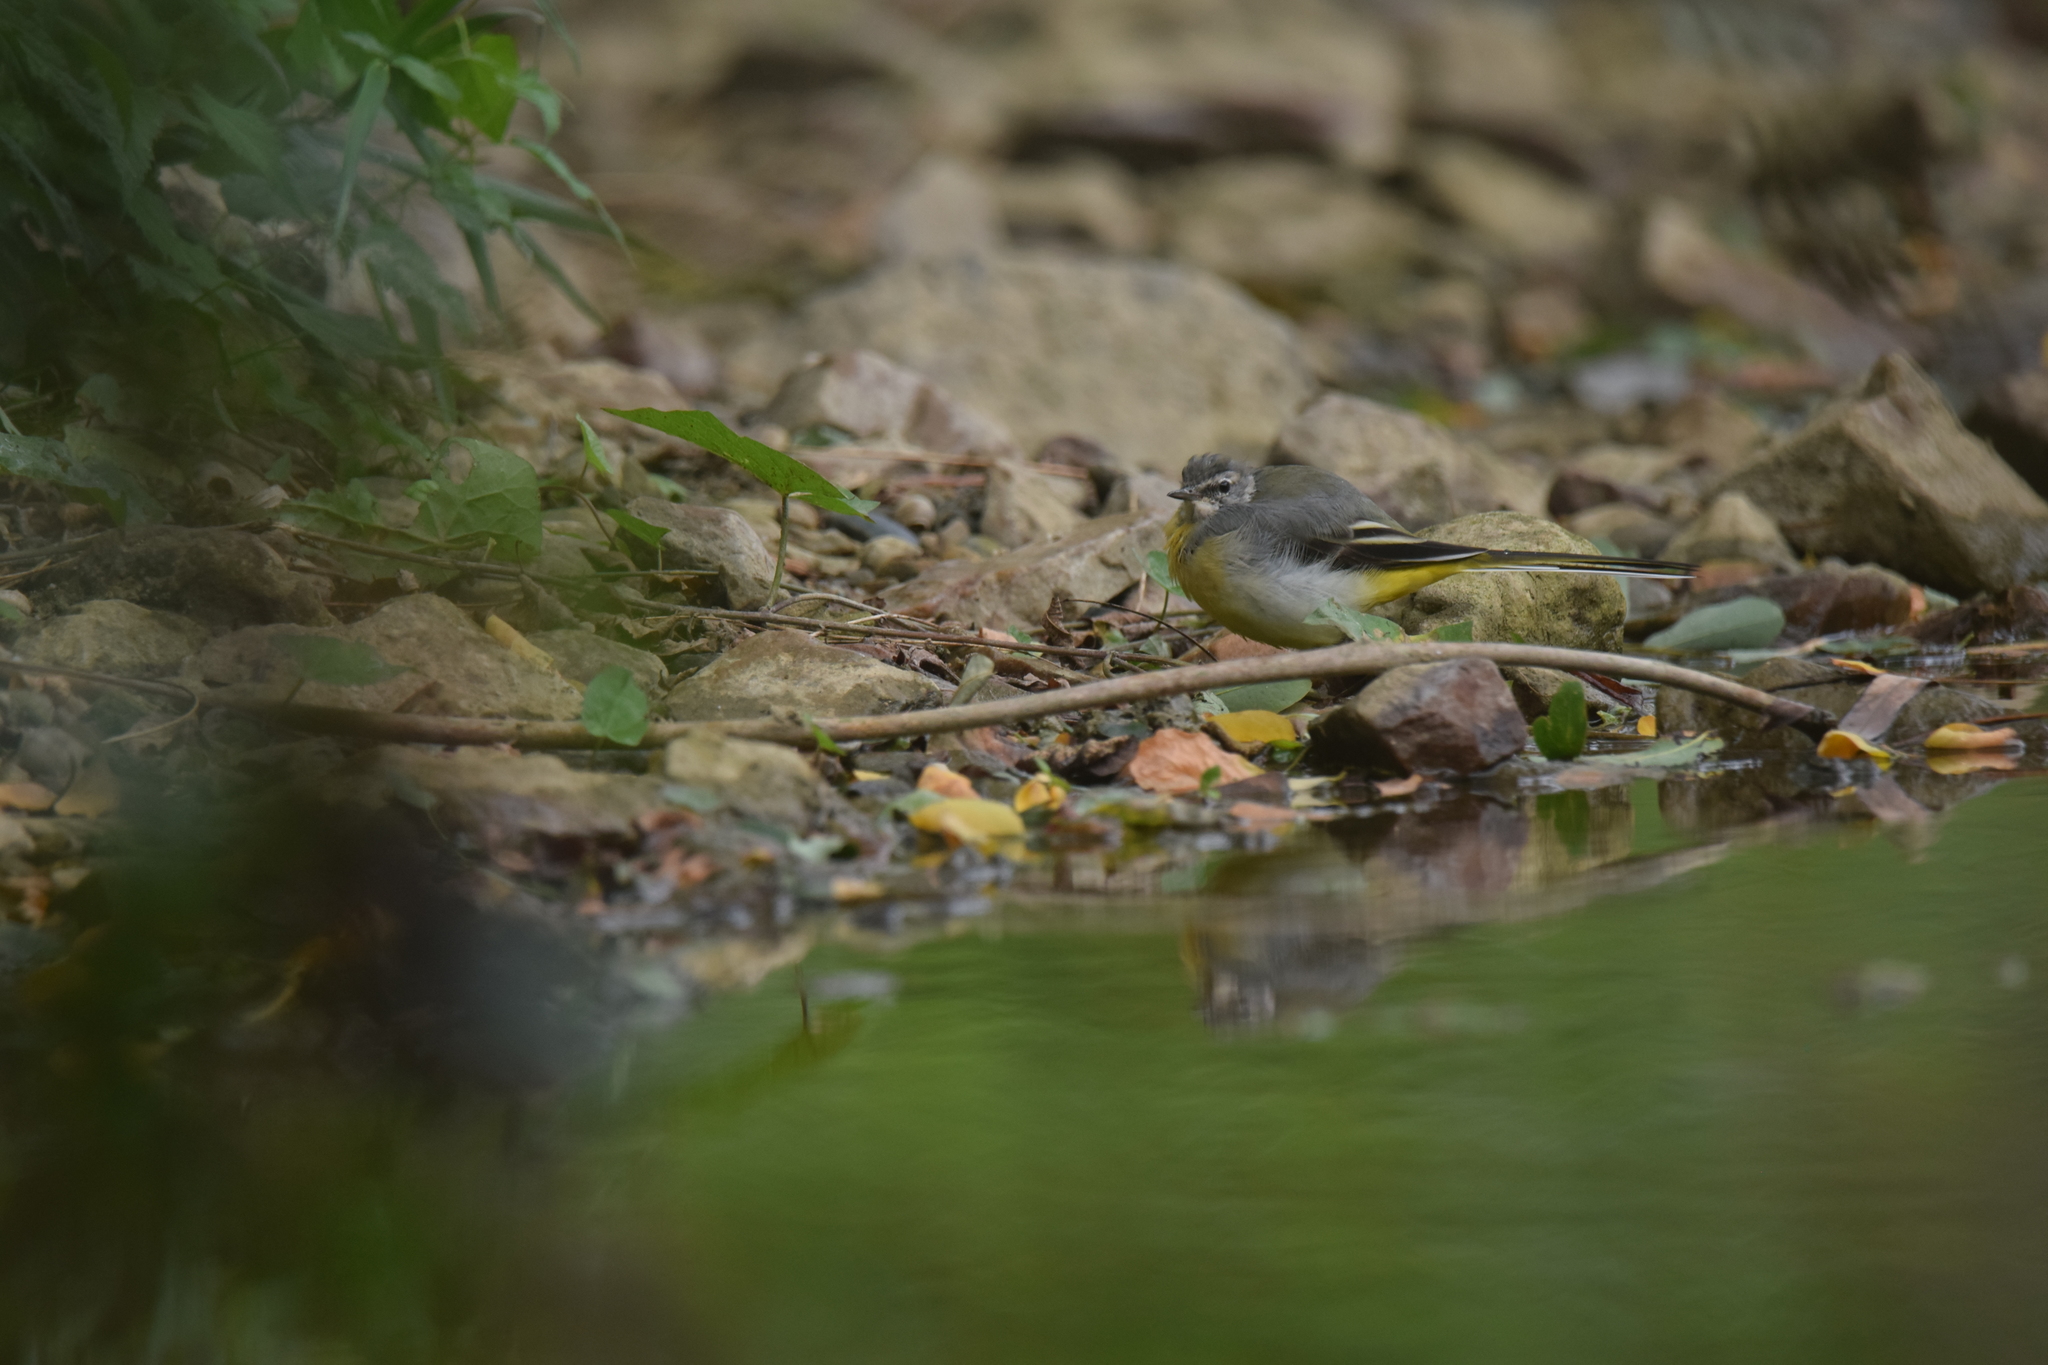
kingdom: Animalia
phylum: Chordata
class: Aves
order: Passeriformes
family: Motacillidae
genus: Motacilla
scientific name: Motacilla cinerea
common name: Grey wagtail
